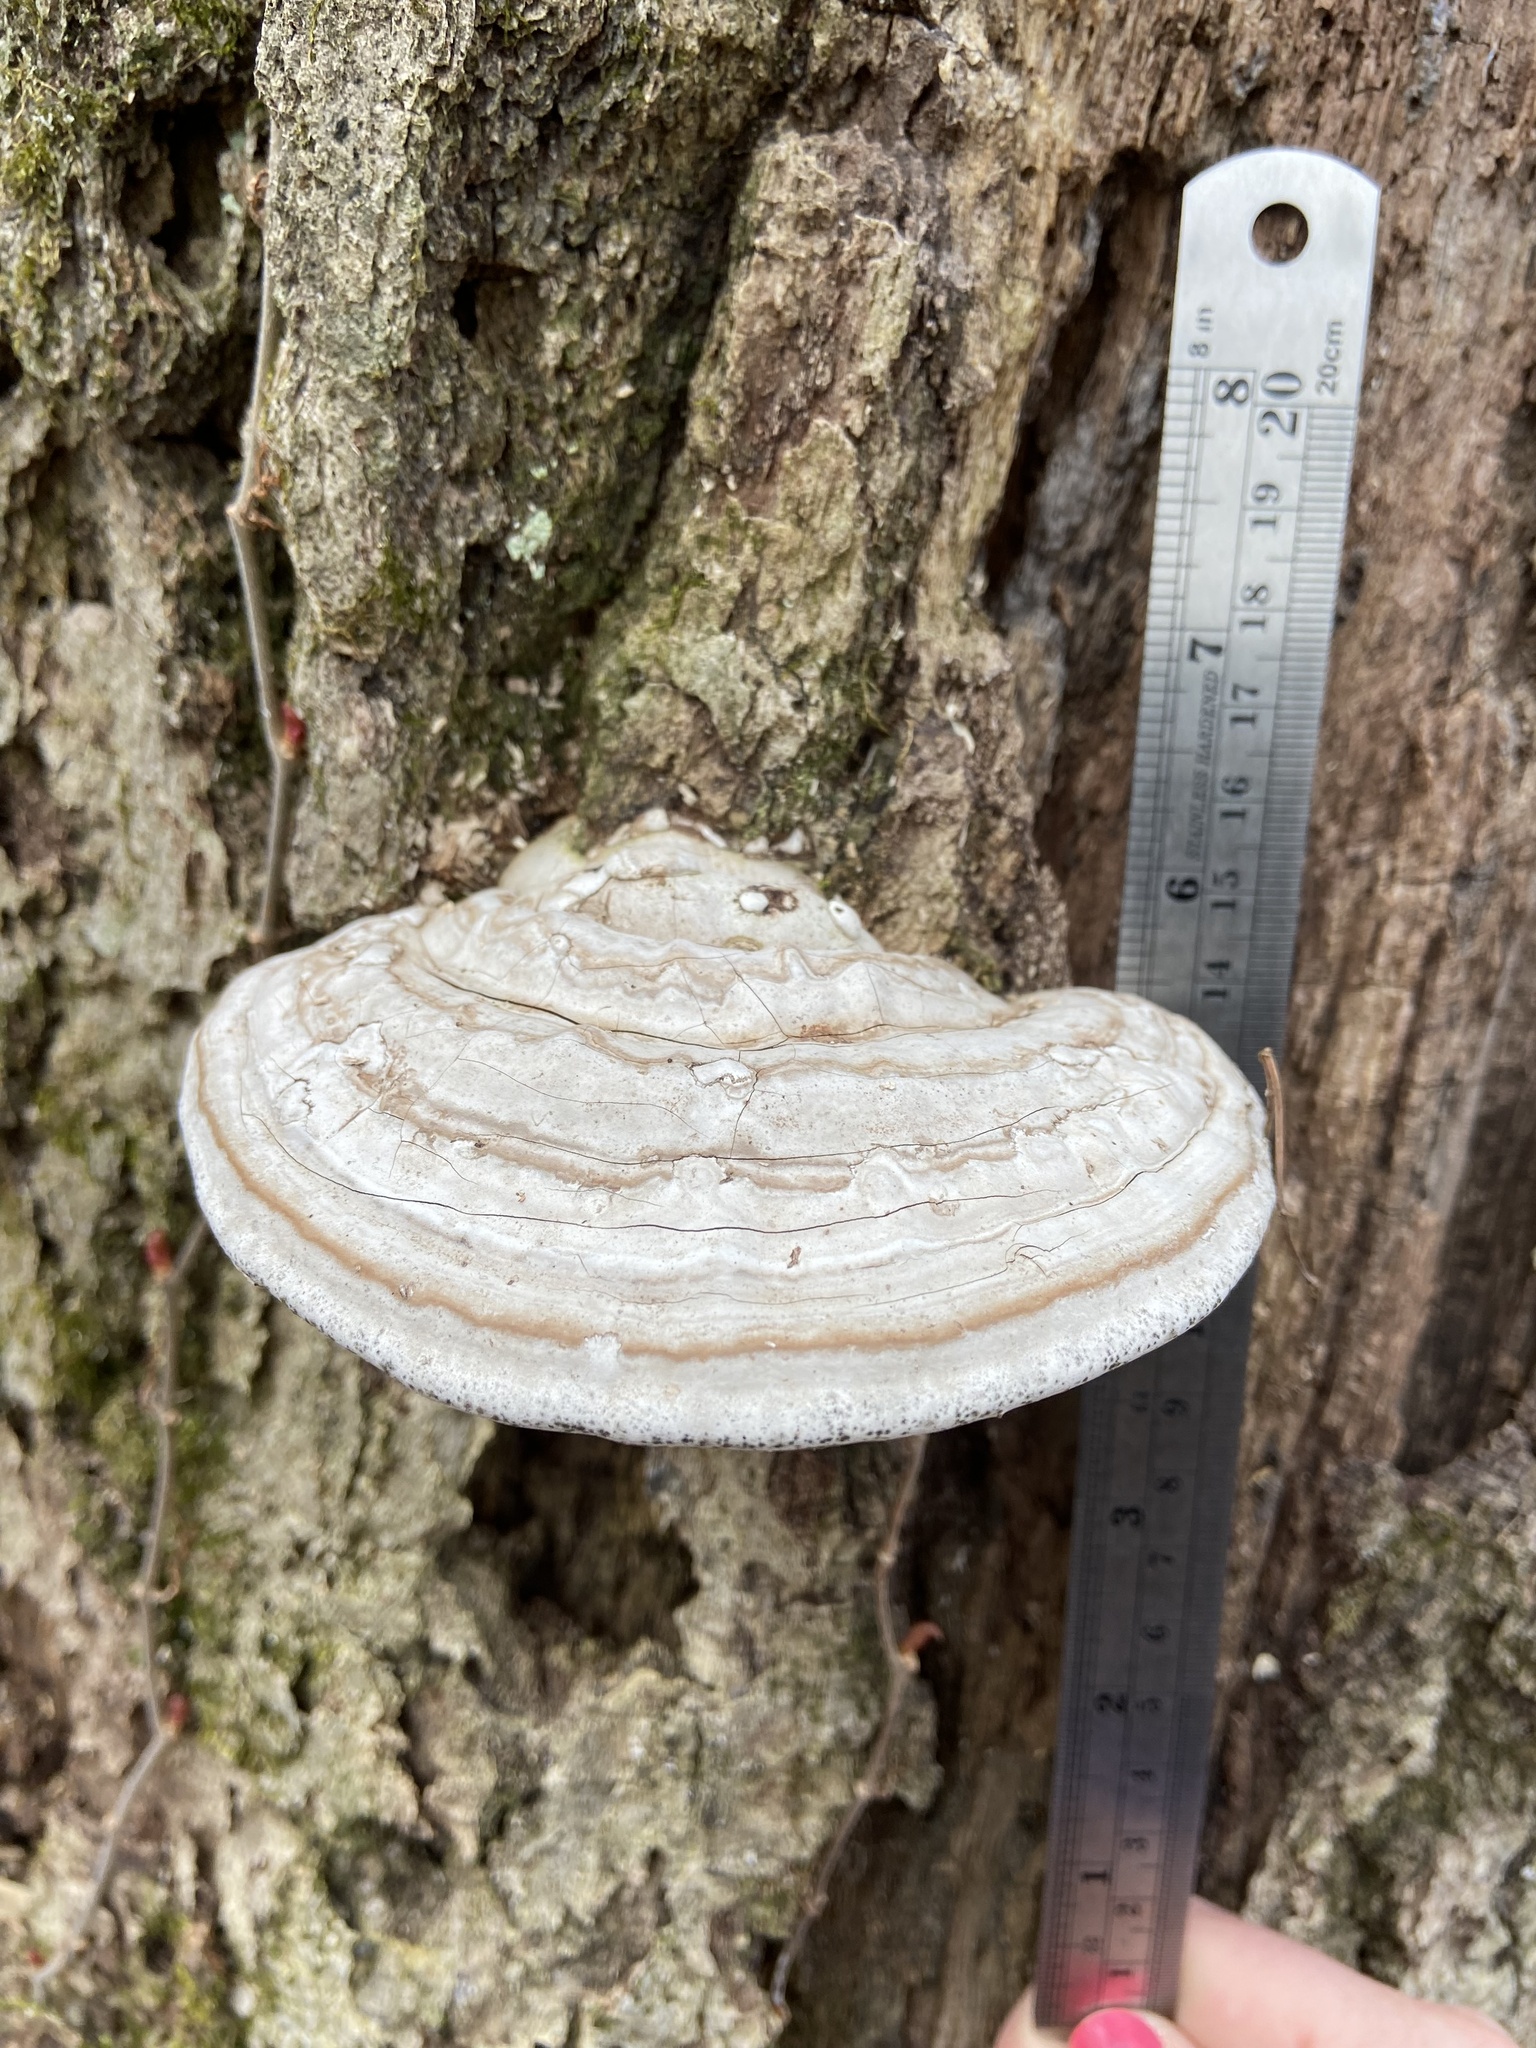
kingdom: Fungi
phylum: Basidiomycota
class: Agaricomycetes
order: Polyporales
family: Polyporaceae
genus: Ganoderma
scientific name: Ganoderma applanatum
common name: Artist's bracket
